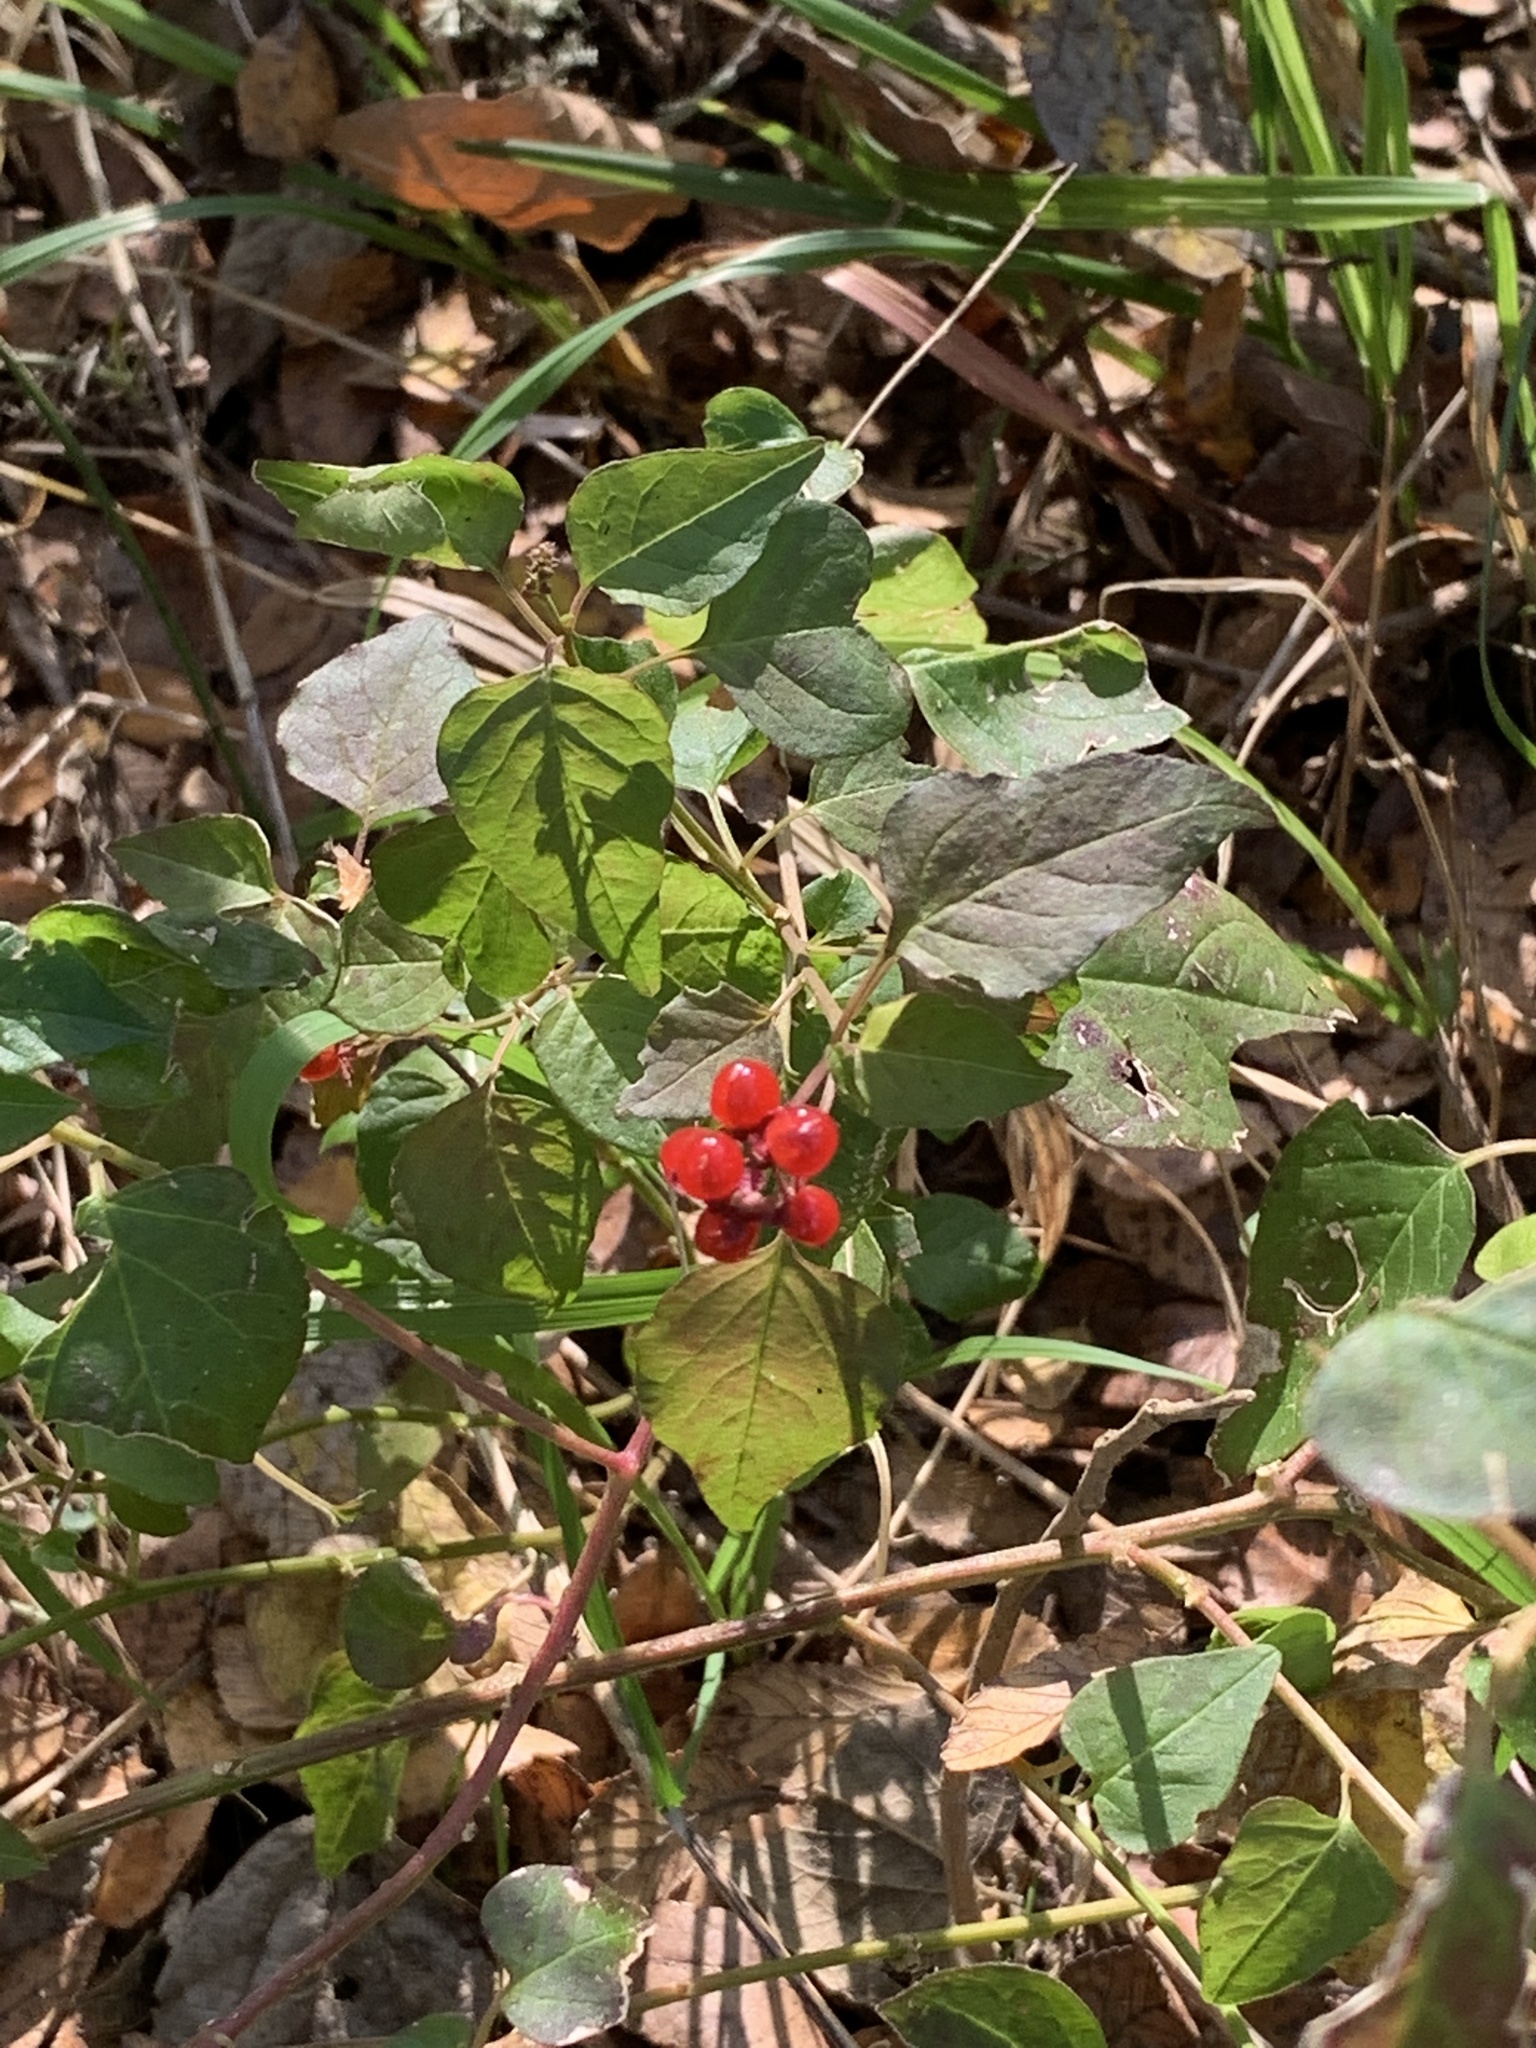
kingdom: Plantae
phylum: Tracheophyta
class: Magnoliopsida
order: Caryophyllales
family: Phytolaccaceae
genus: Rivina
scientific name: Rivina humilis
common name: Rougeplant
